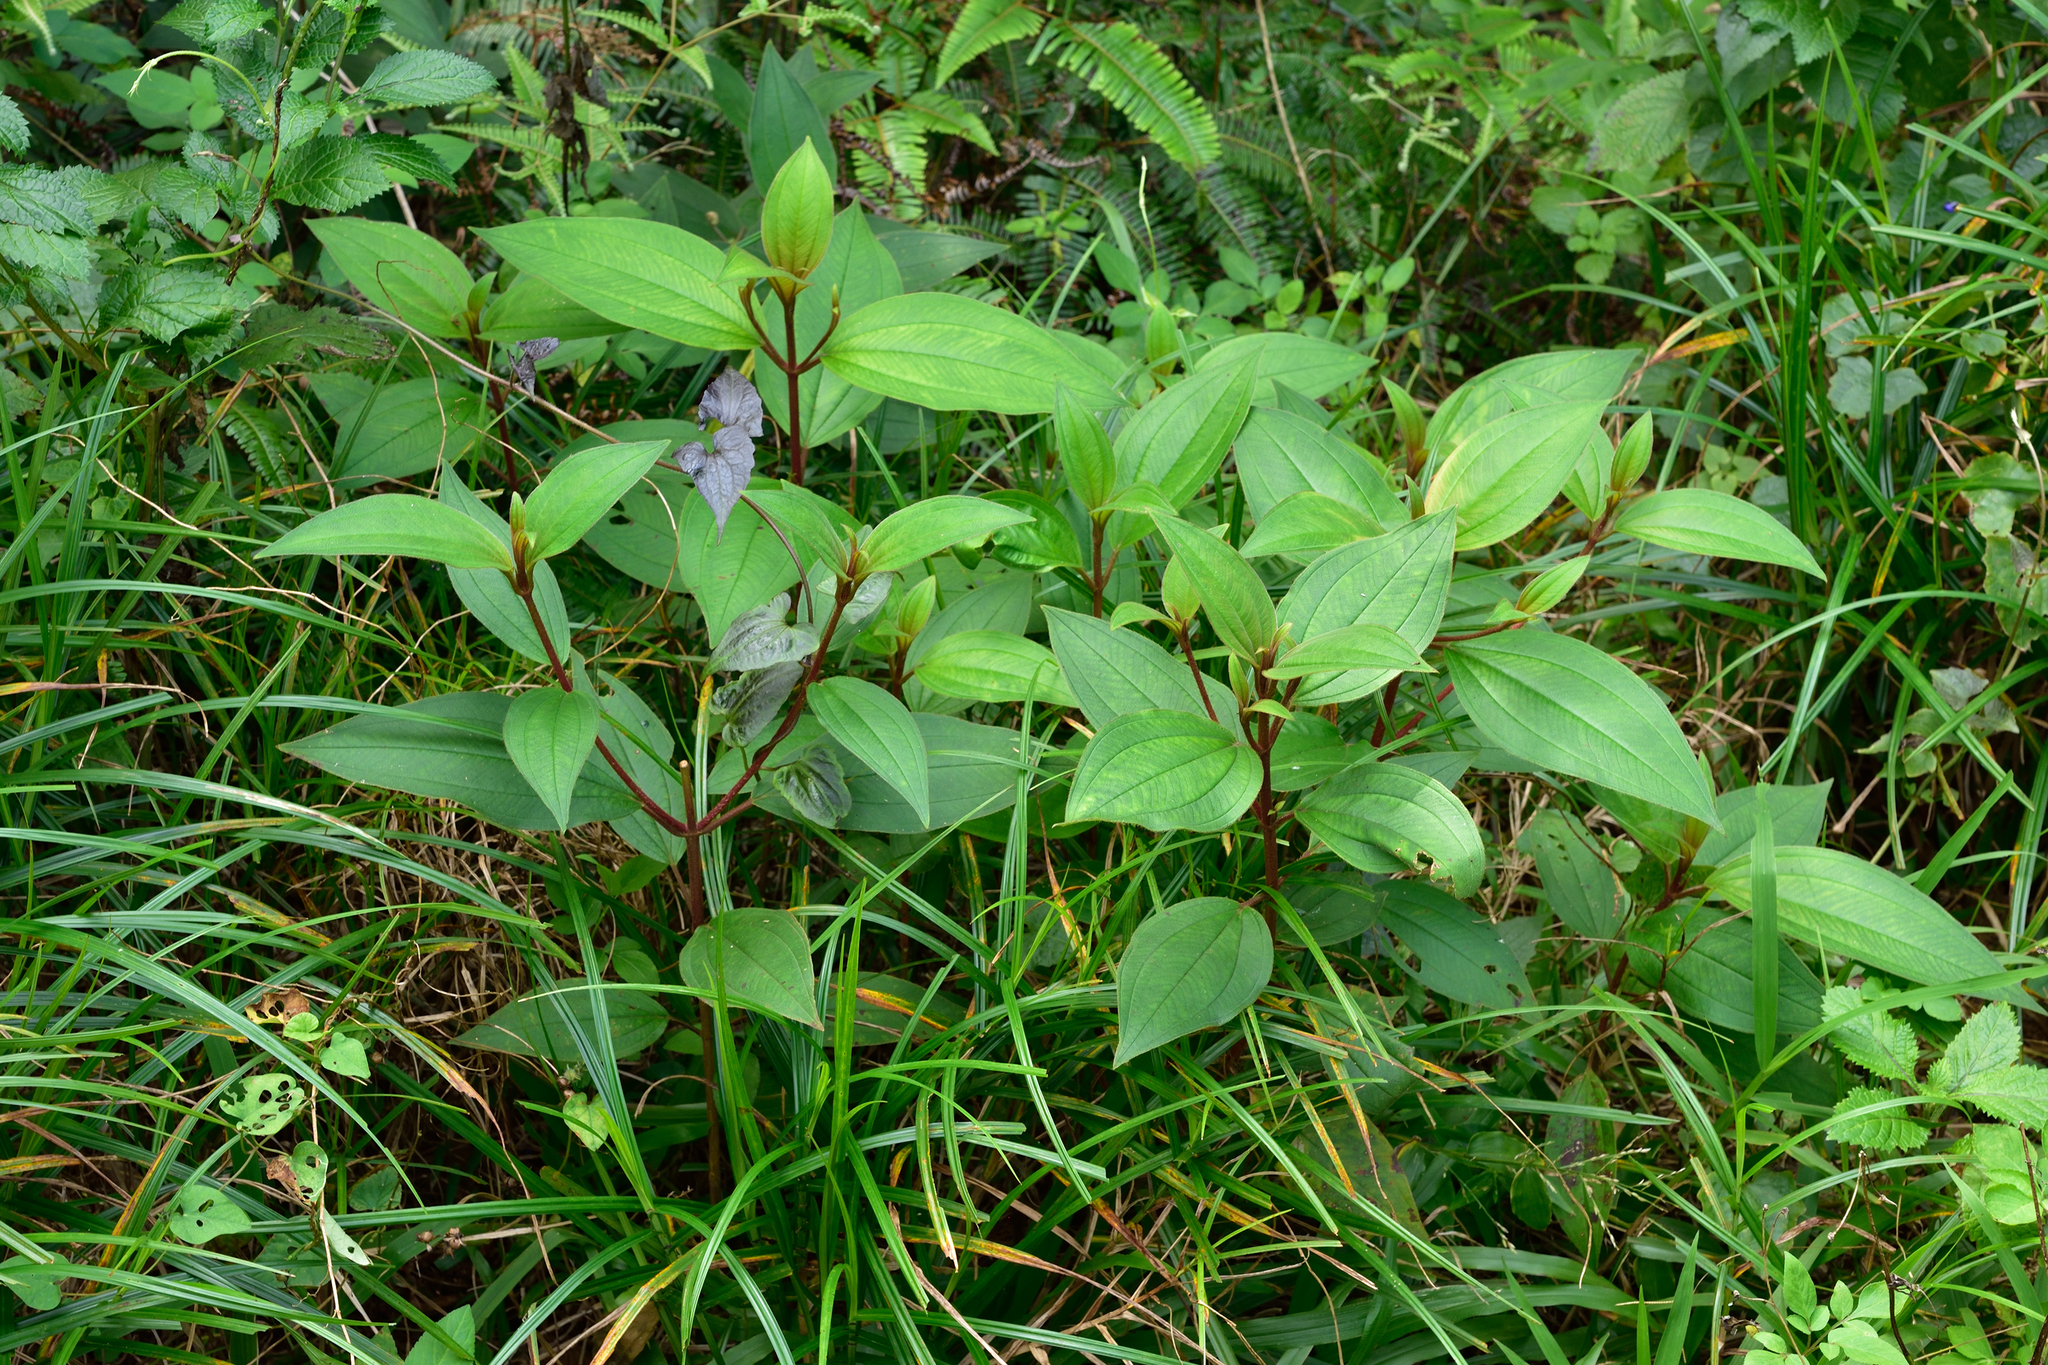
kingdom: Plantae
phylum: Tracheophyta
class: Magnoliopsida
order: Myrtales
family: Melastomataceae
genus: Melastoma
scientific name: Melastoma malabathricum
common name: Indian-rhododendron
